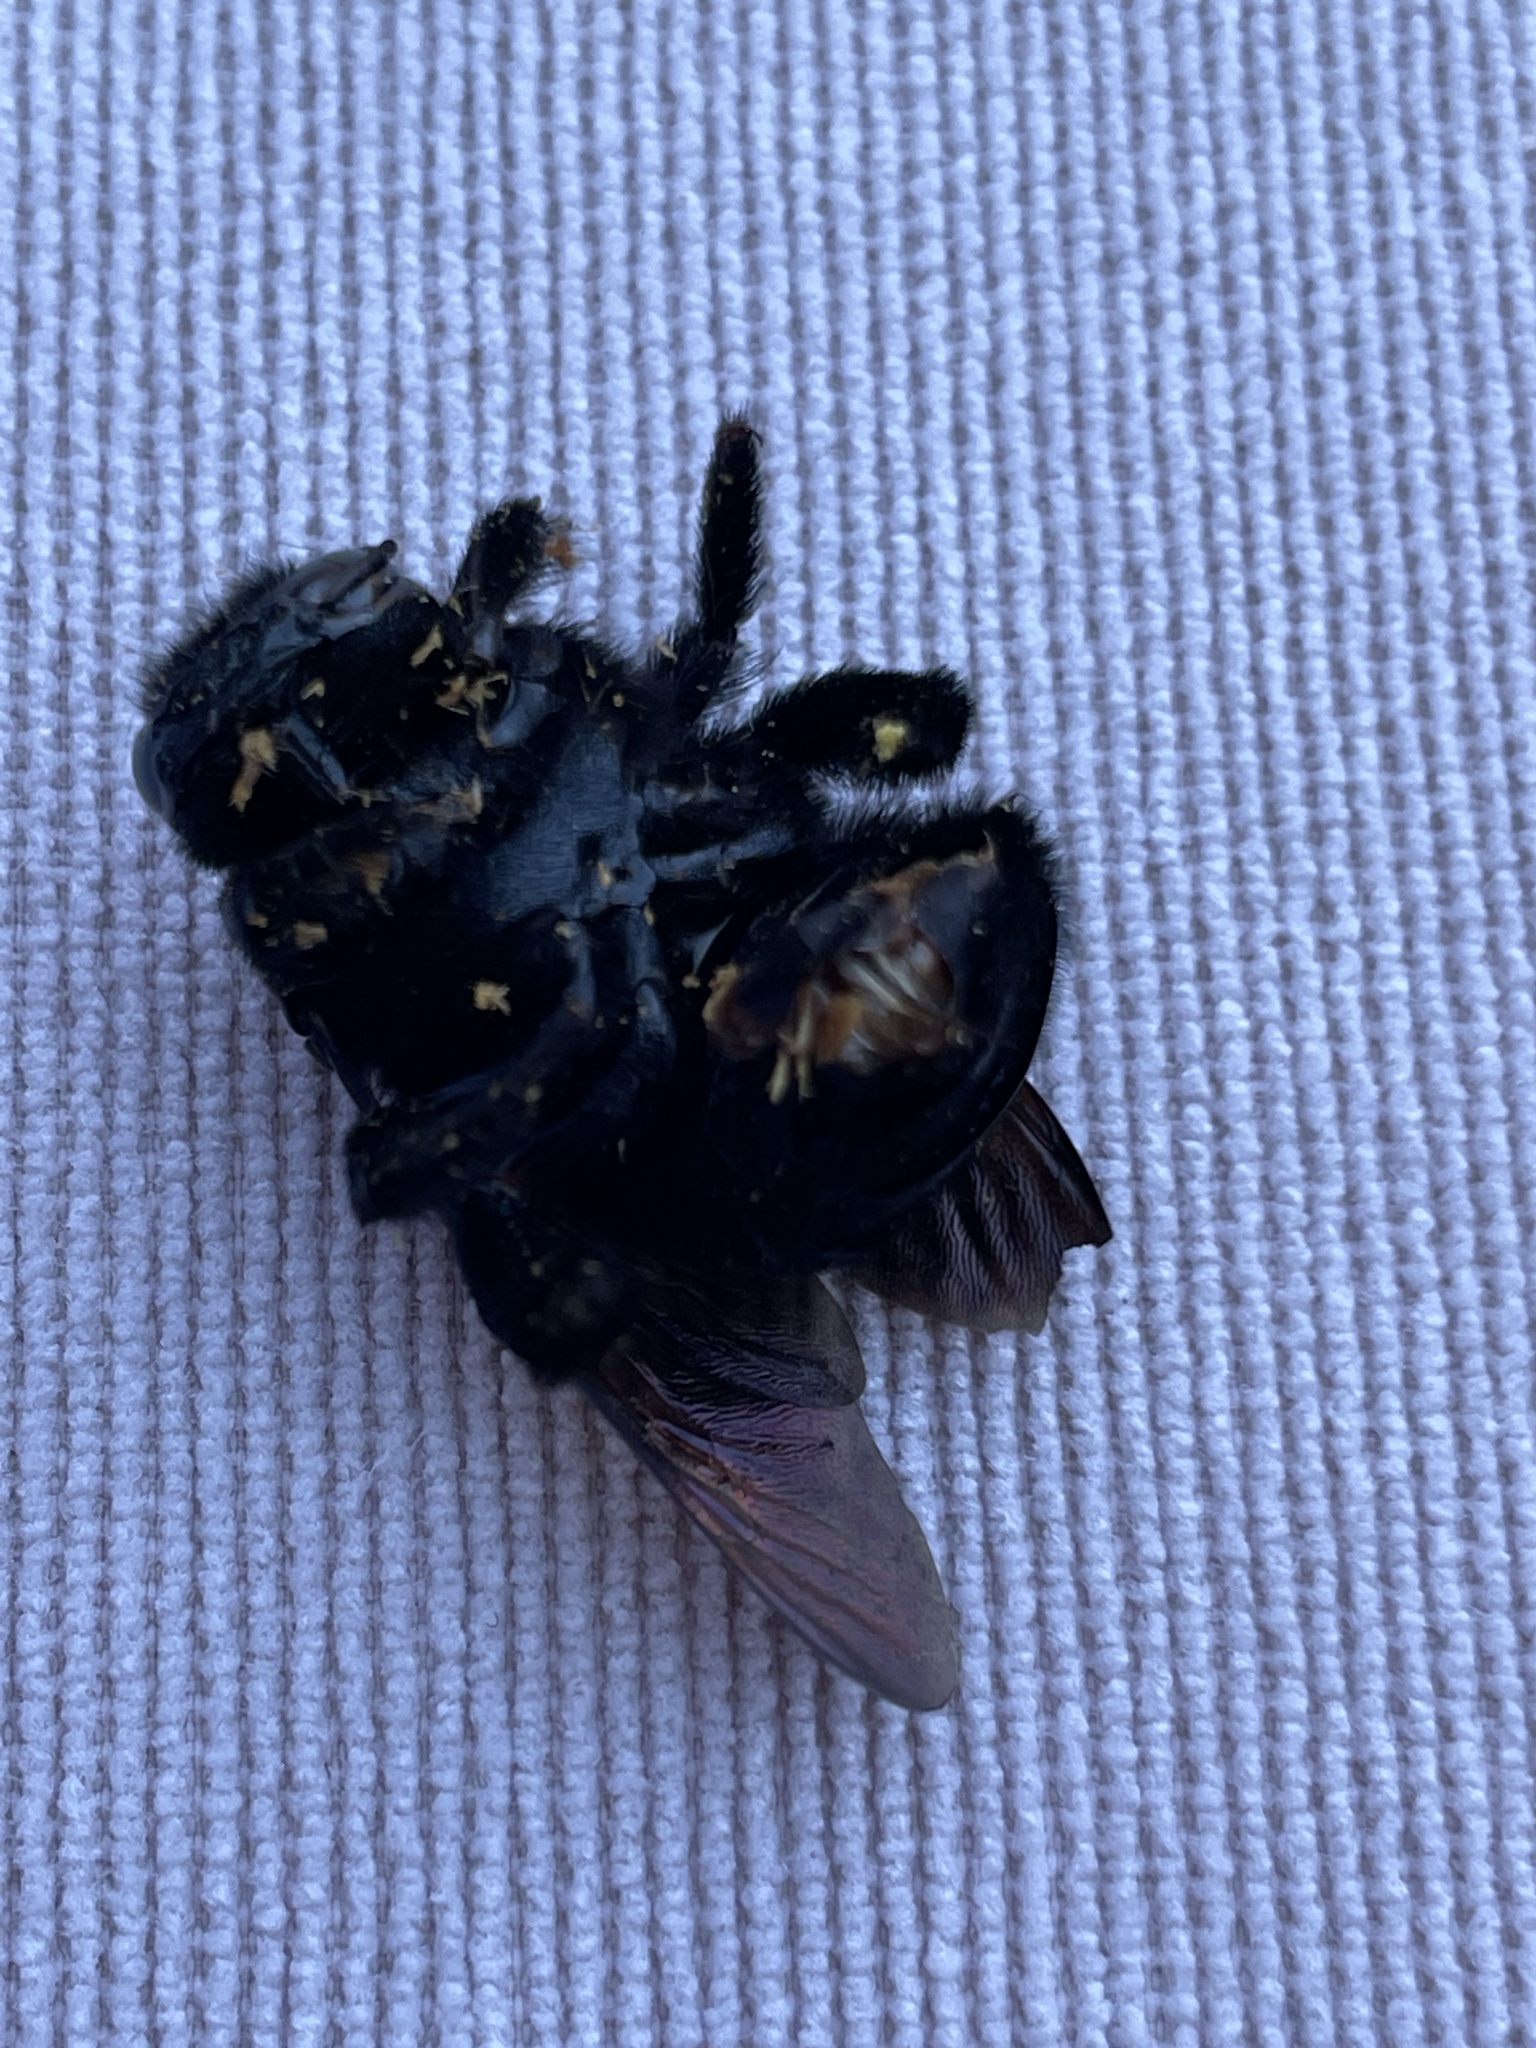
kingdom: Animalia
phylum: Arthropoda
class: Insecta
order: Hymenoptera
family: Apidae
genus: Xylocopa
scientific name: Xylocopa sonorina
